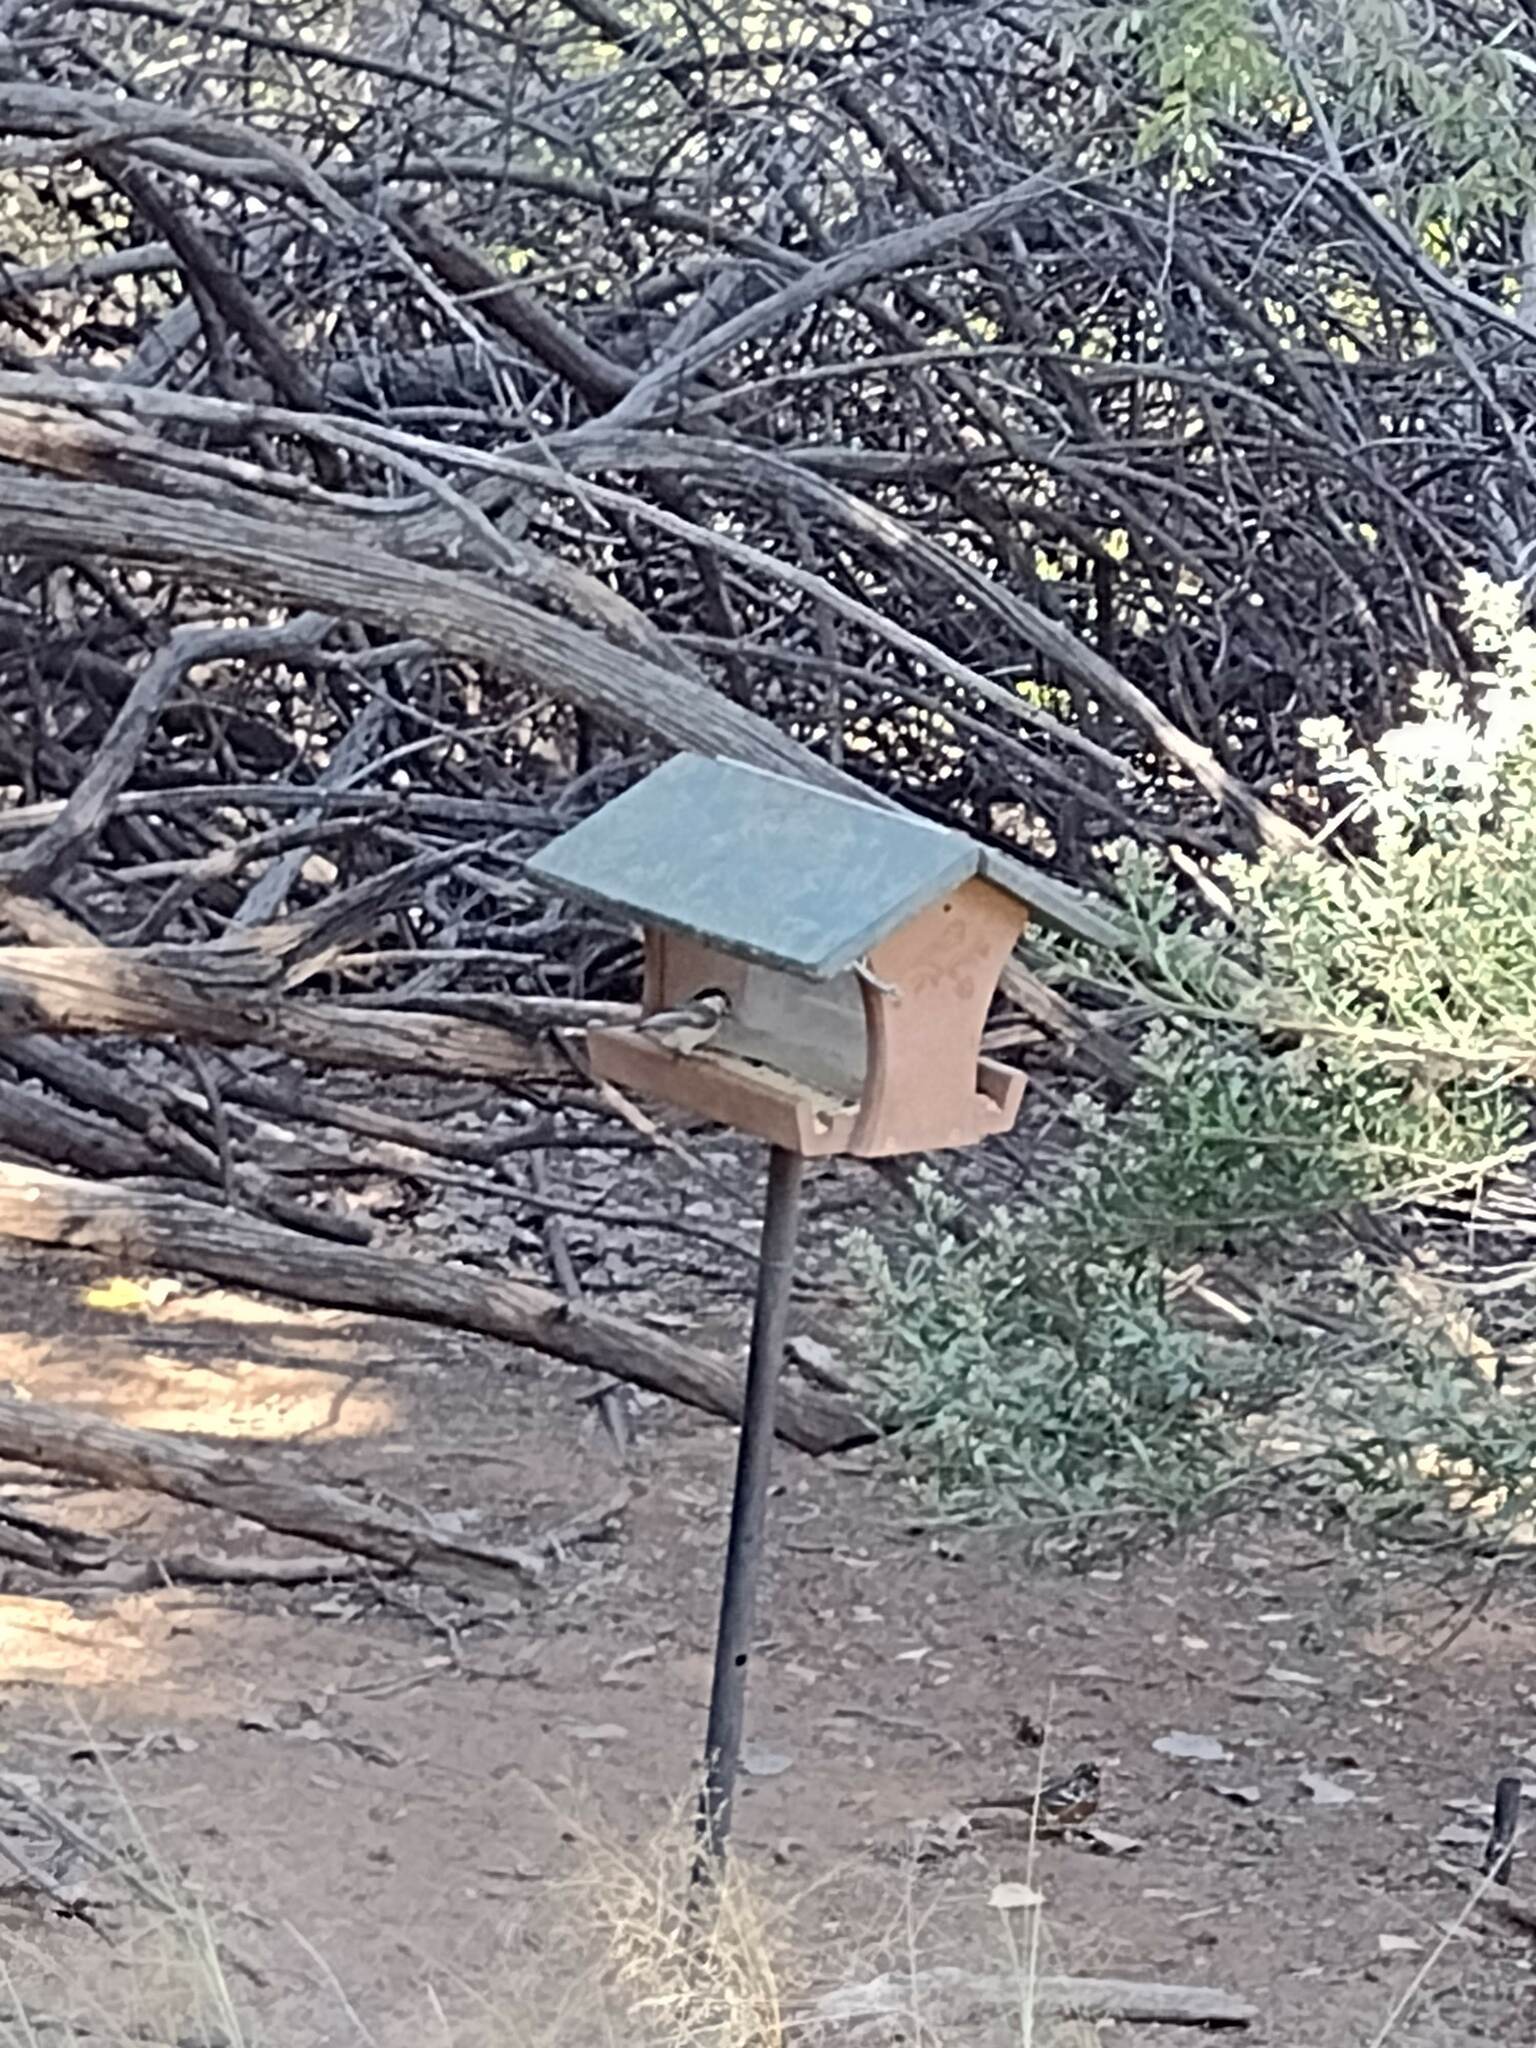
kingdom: Animalia
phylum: Chordata
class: Aves
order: Passeriformes
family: Paridae
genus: Poecile
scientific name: Poecile atricapillus
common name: Black-capped chickadee
